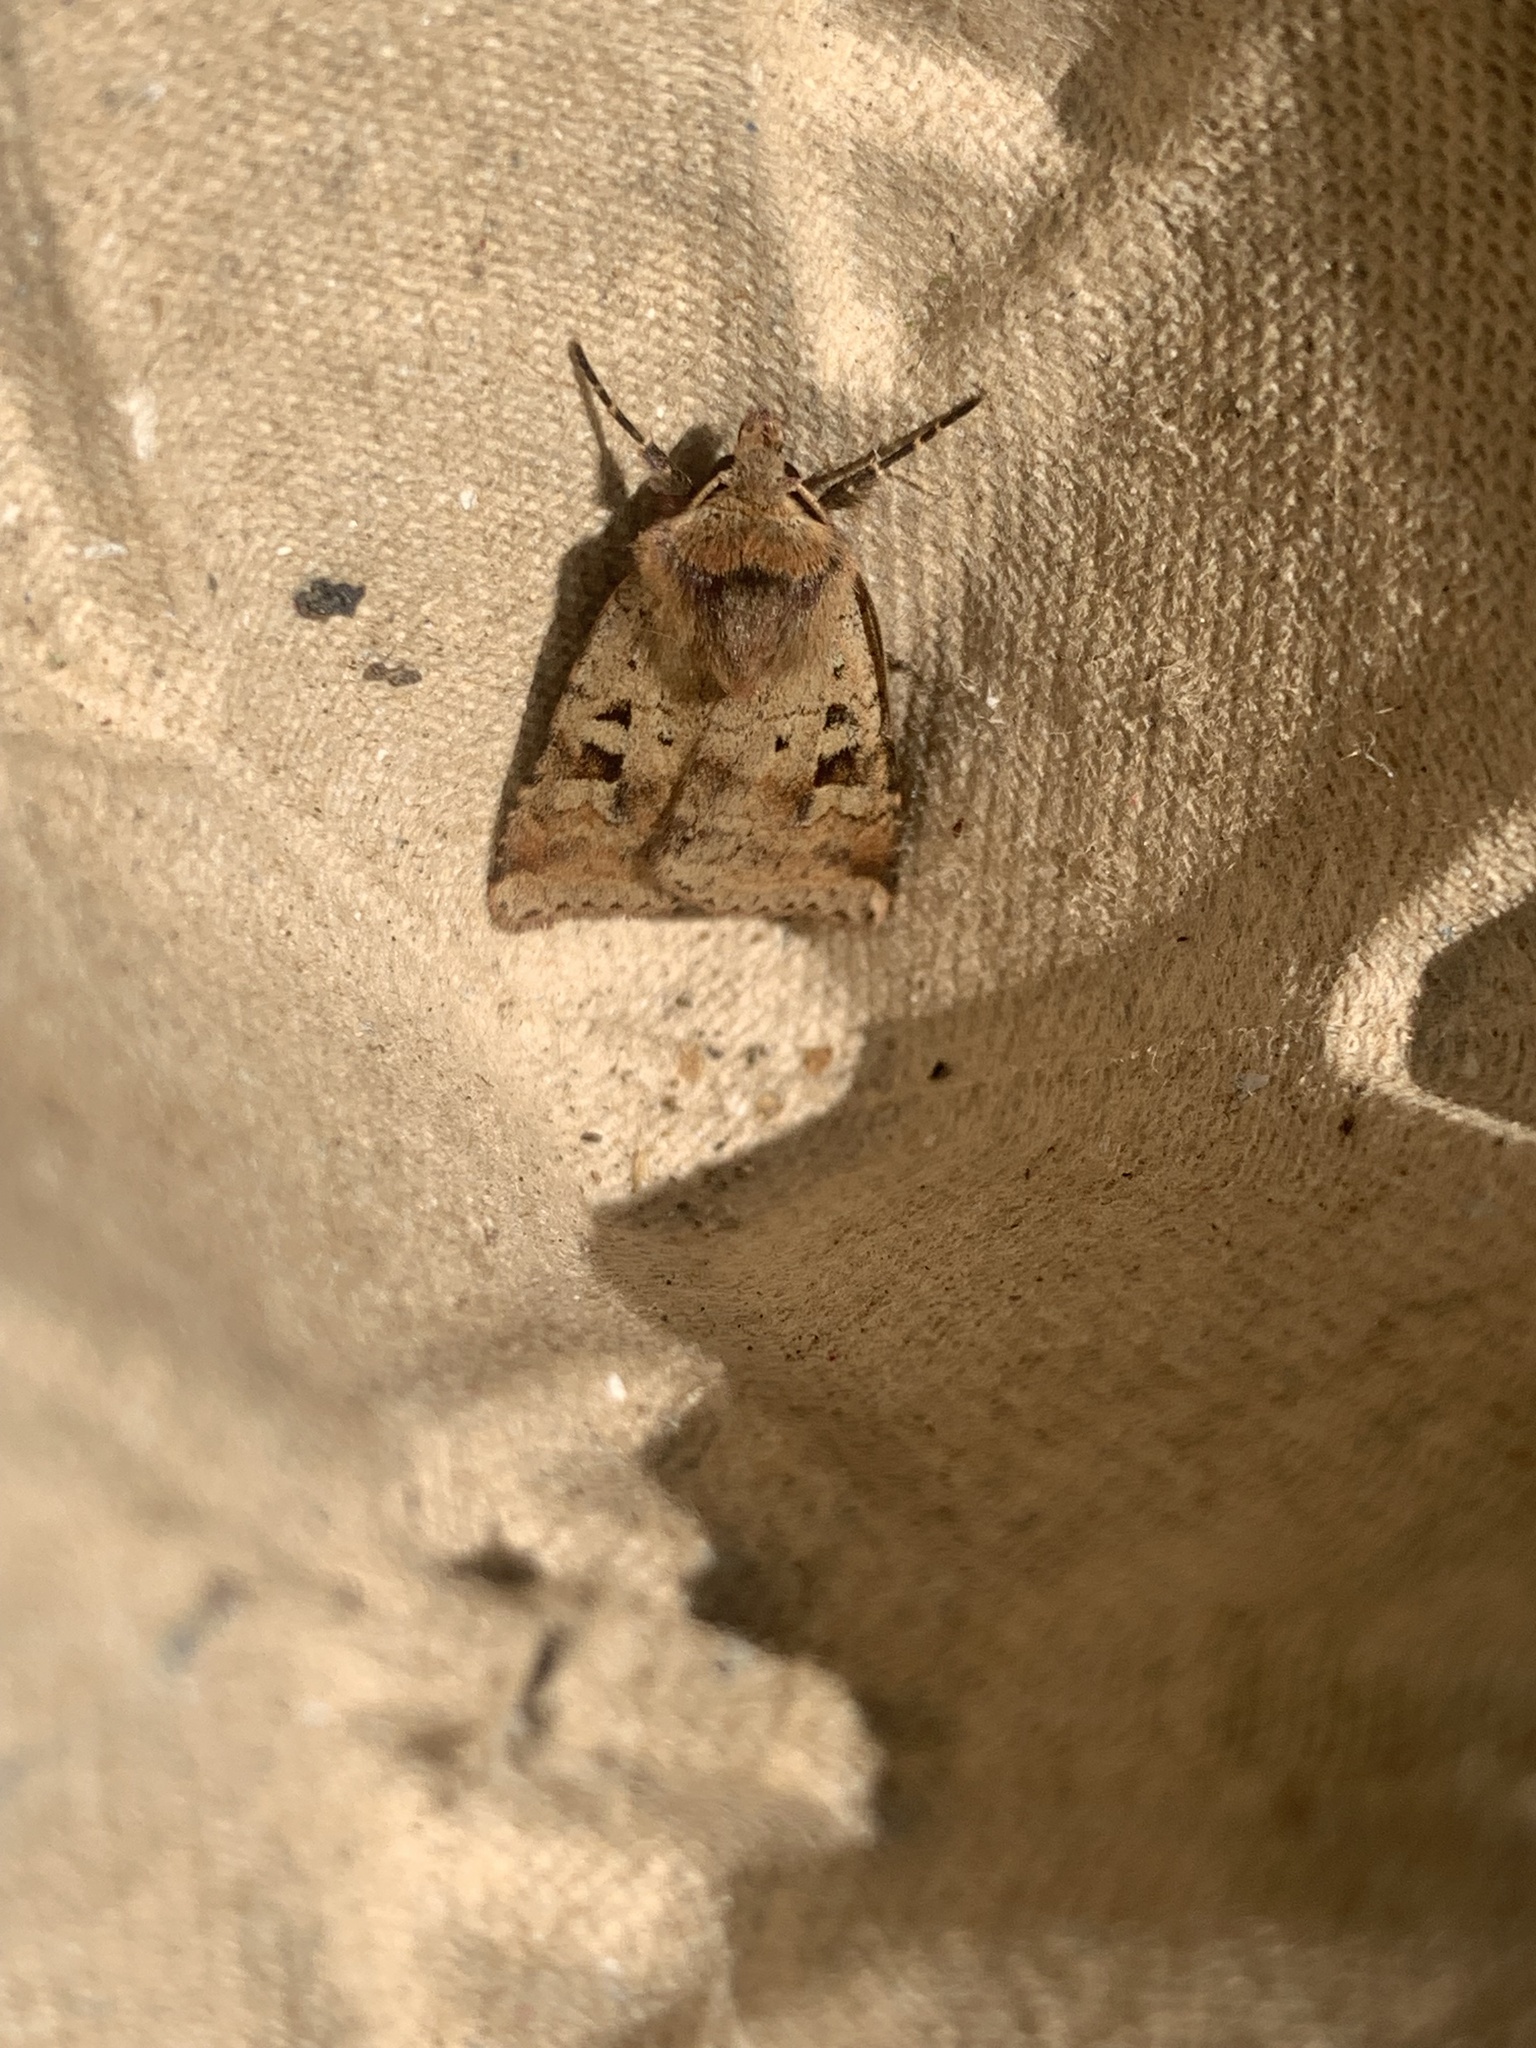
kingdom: Animalia
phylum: Arthropoda
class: Insecta
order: Lepidoptera
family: Noctuidae
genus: Diarsia
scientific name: Diarsia mendica
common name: Ingrailed clay
